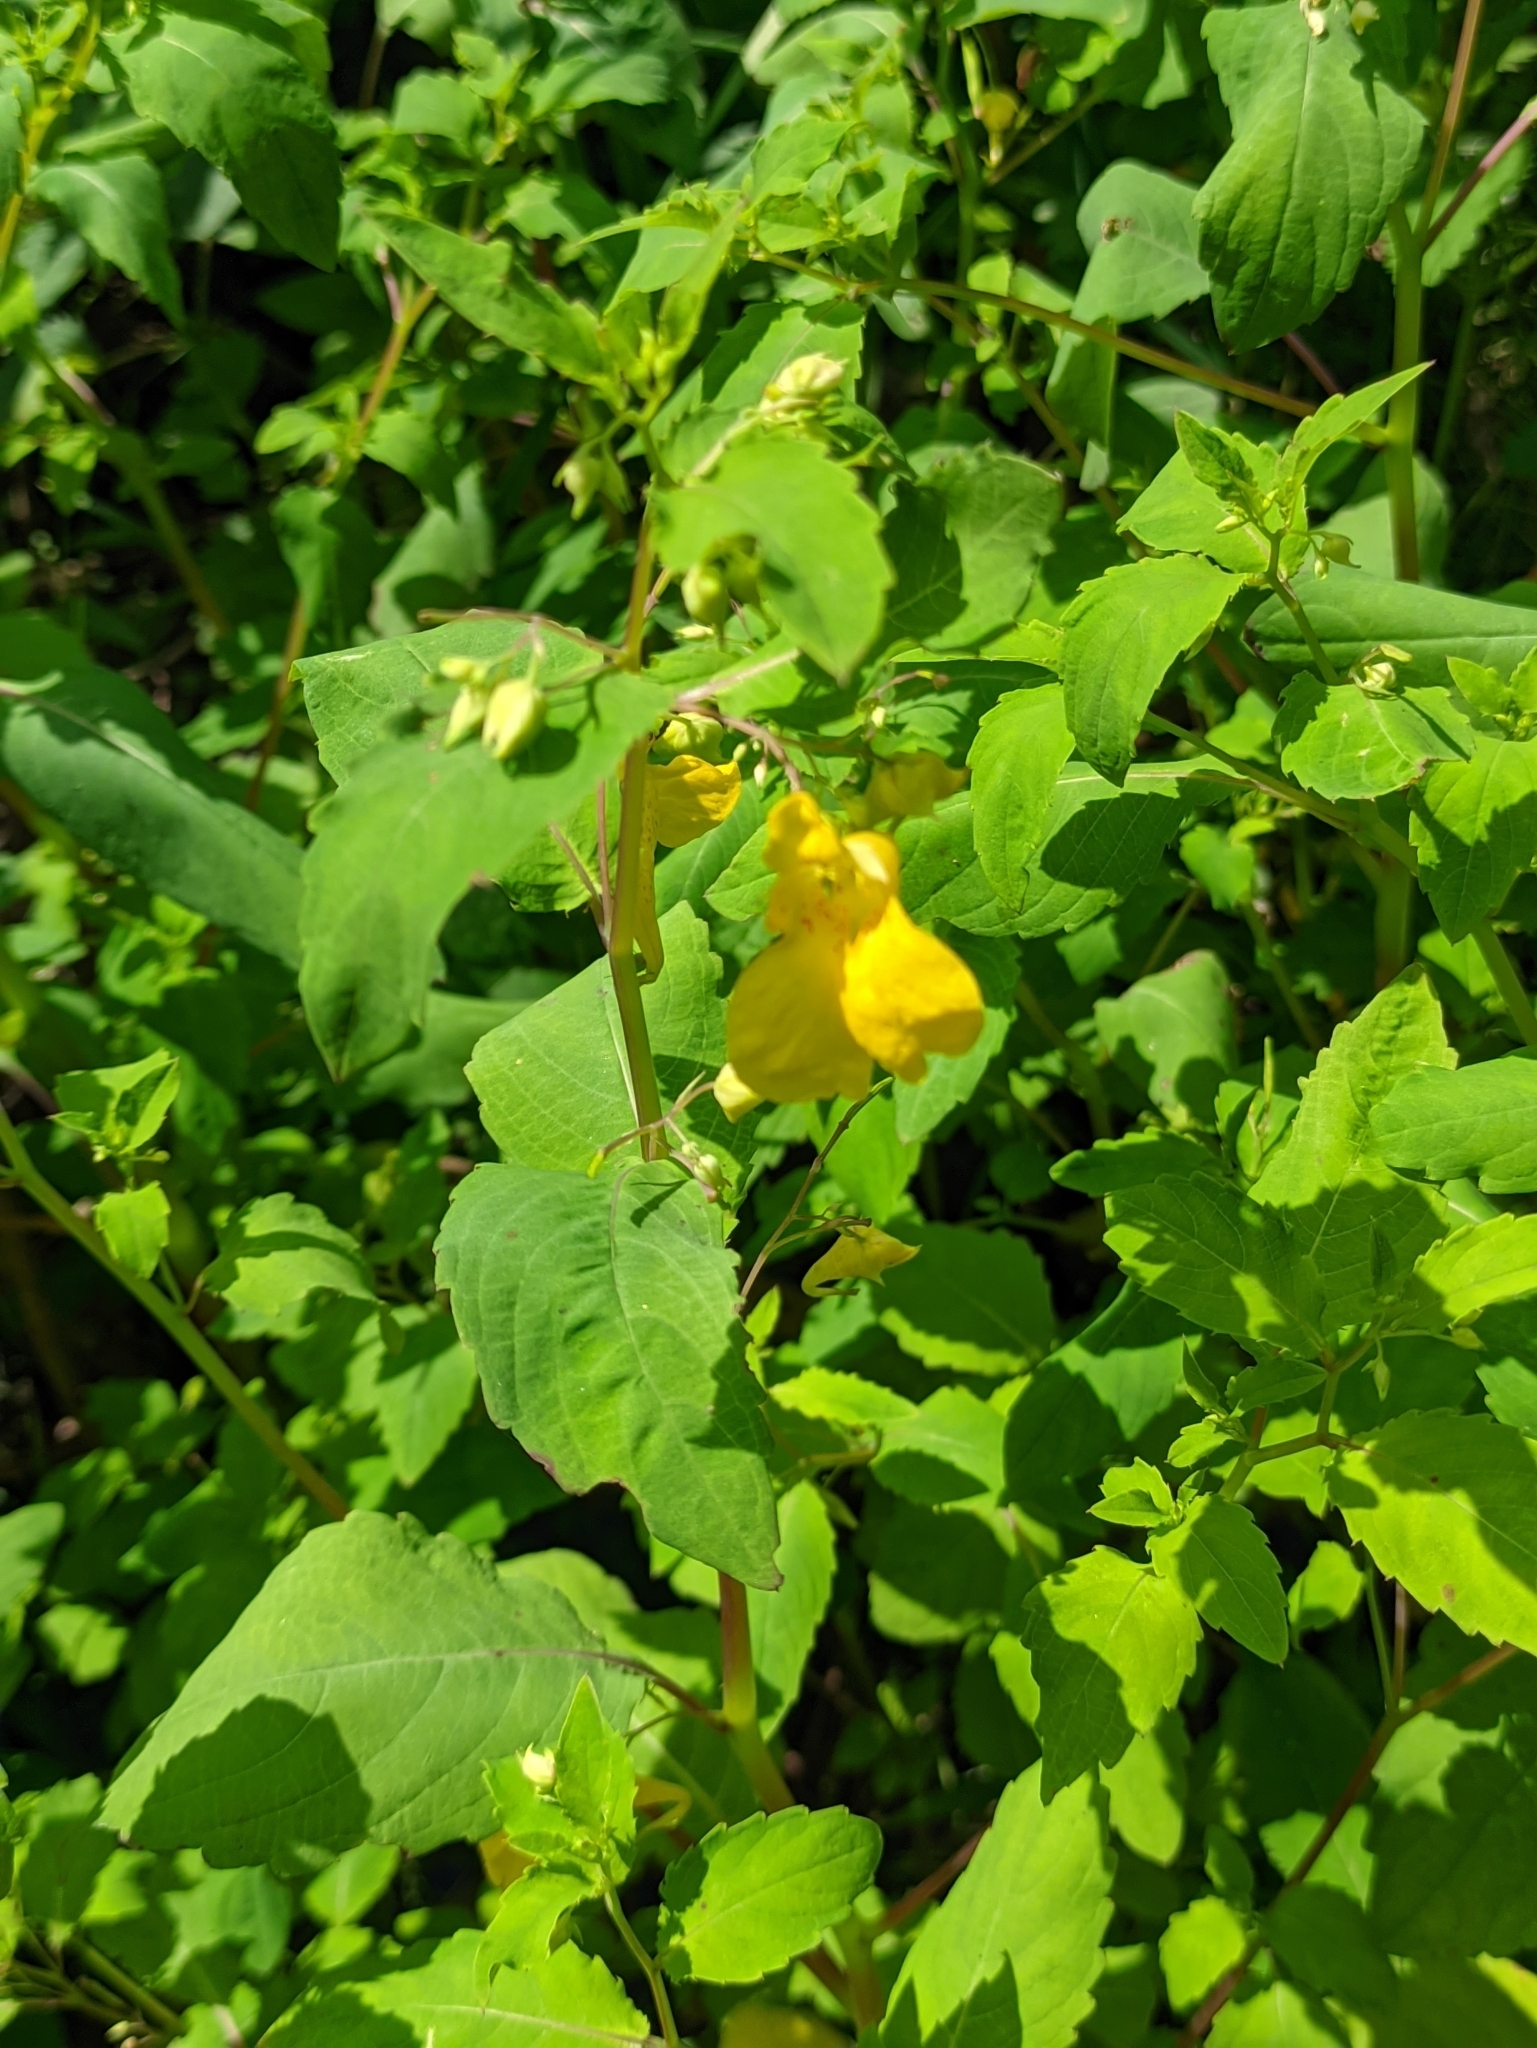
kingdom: Plantae
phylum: Tracheophyta
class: Magnoliopsida
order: Ericales
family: Balsaminaceae
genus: Impatiens
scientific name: Impatiens noli-tangere
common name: Touch-me-not balsam
